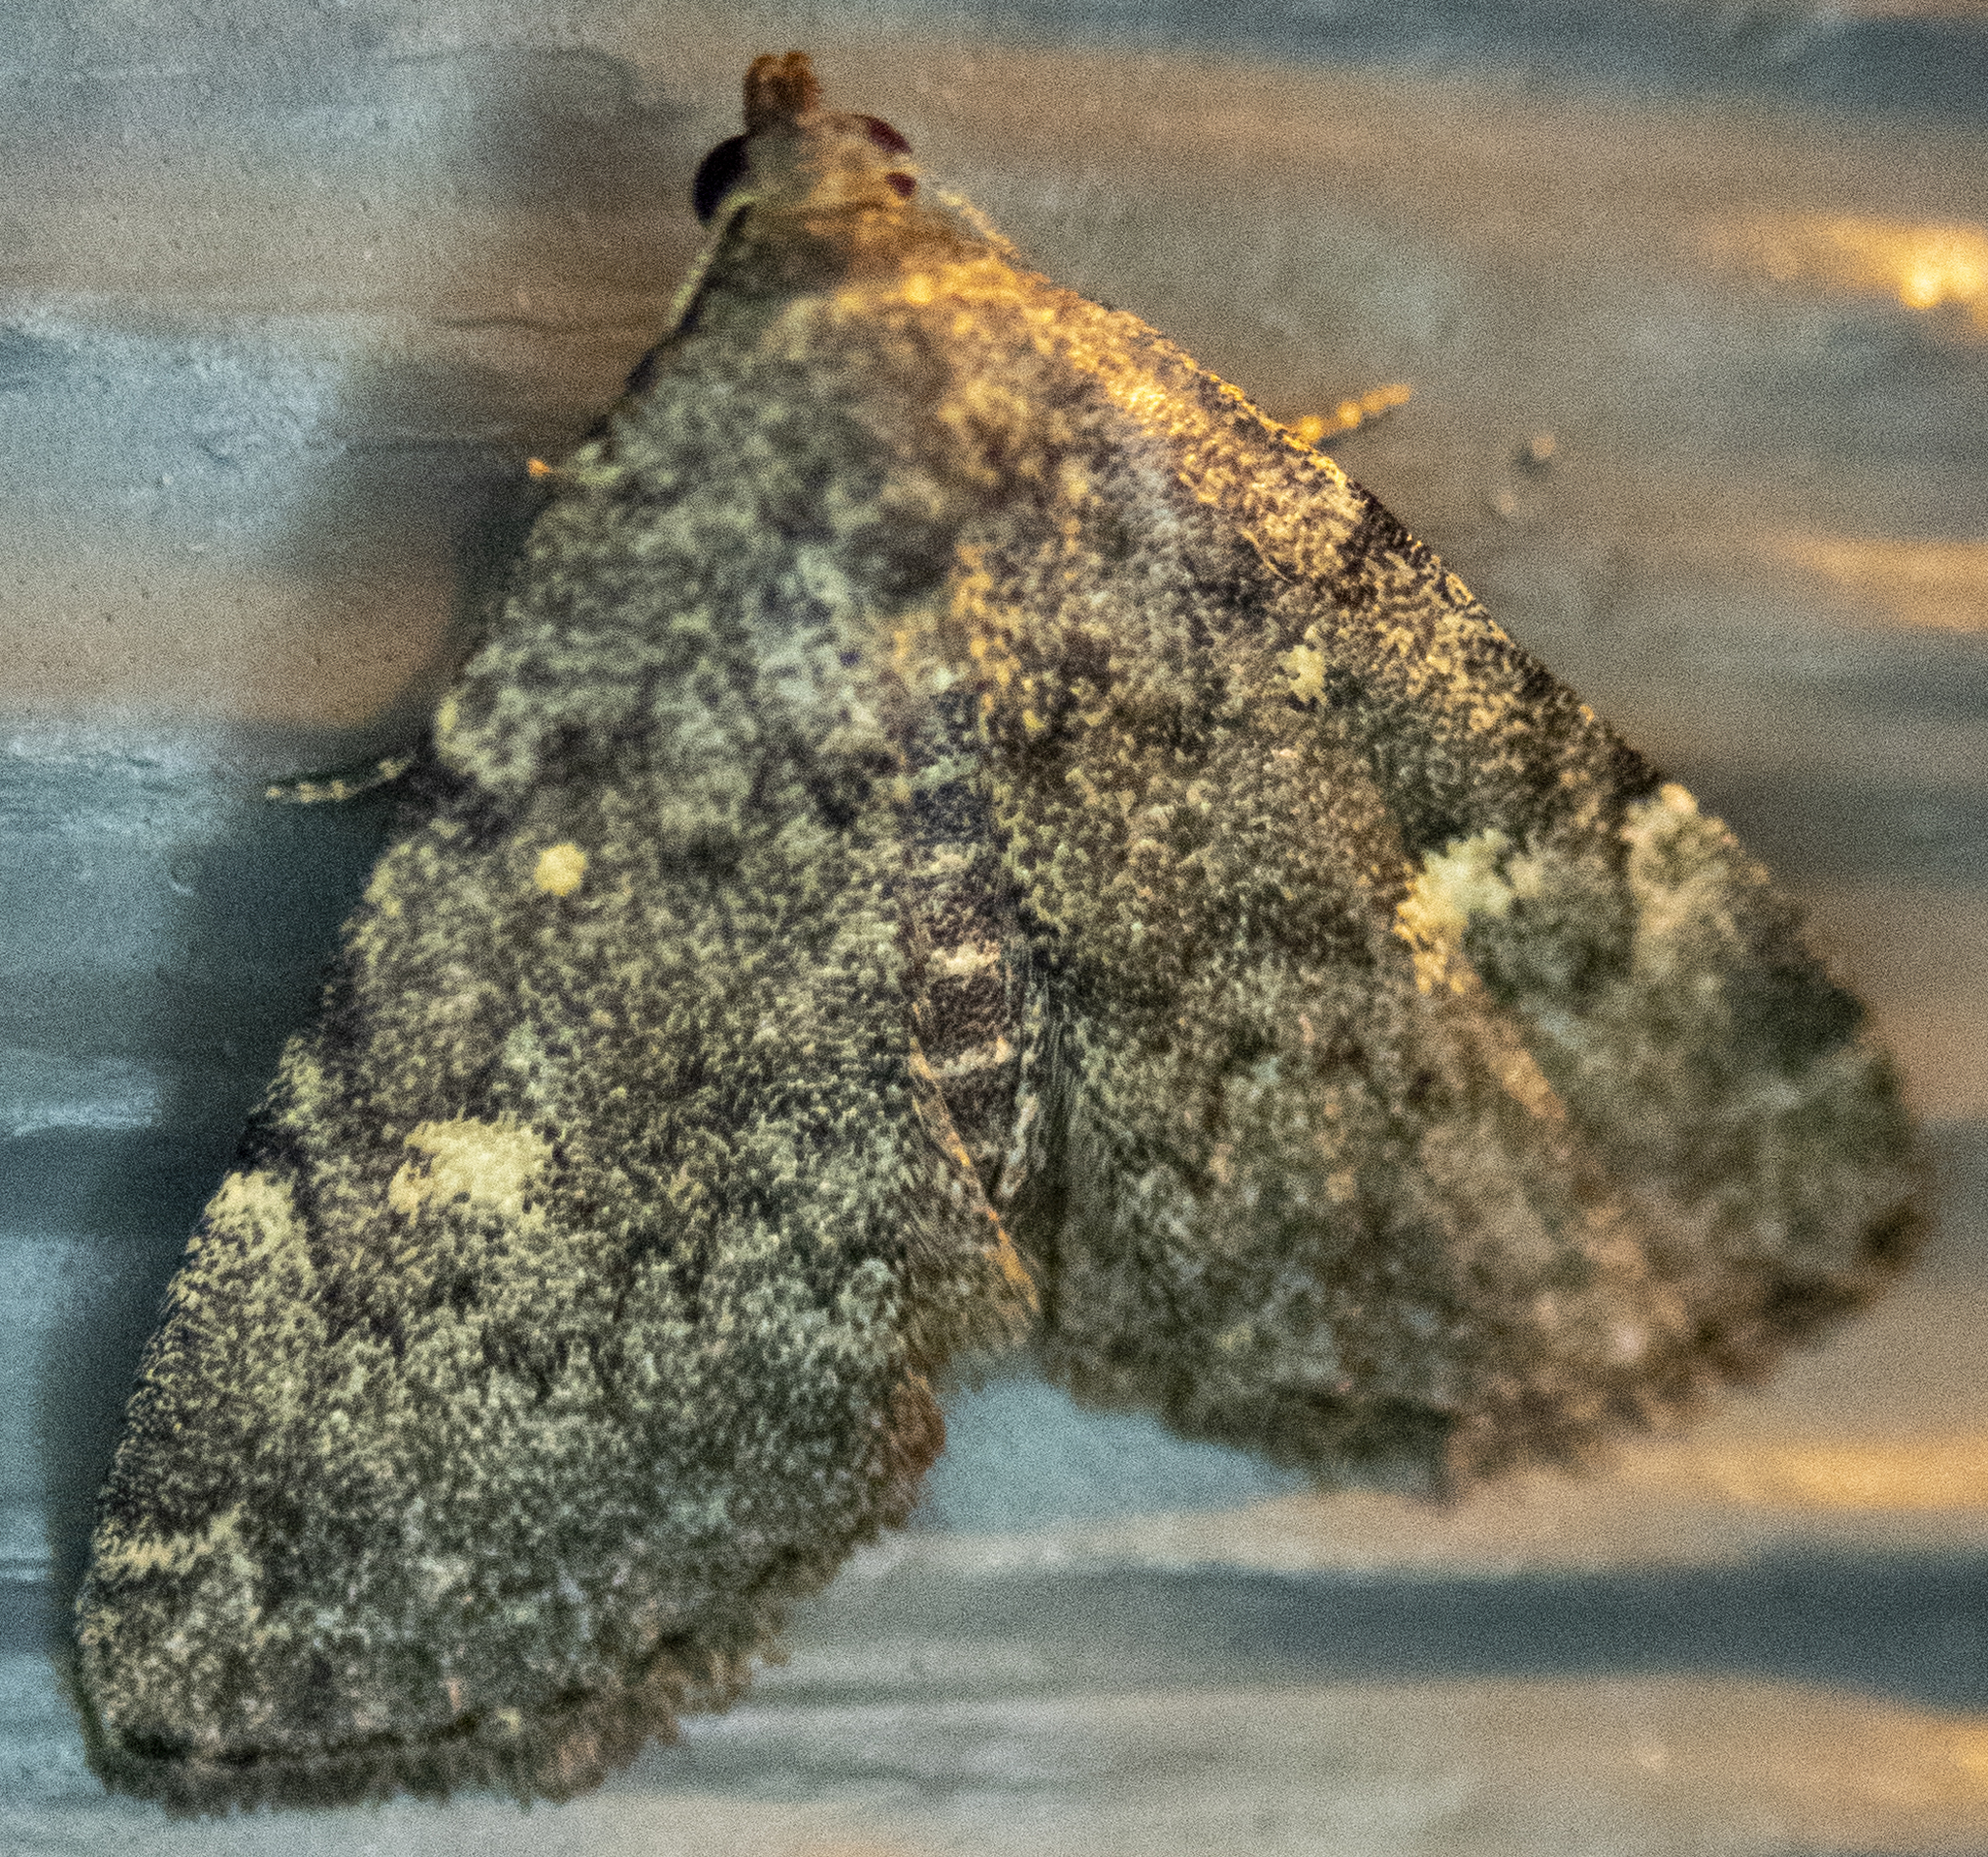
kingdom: Animalia
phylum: Arthropoda
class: Insecta
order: Lepidoptera
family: Erebidae
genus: Idia
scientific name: Idia aemula
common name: Common idia moth
